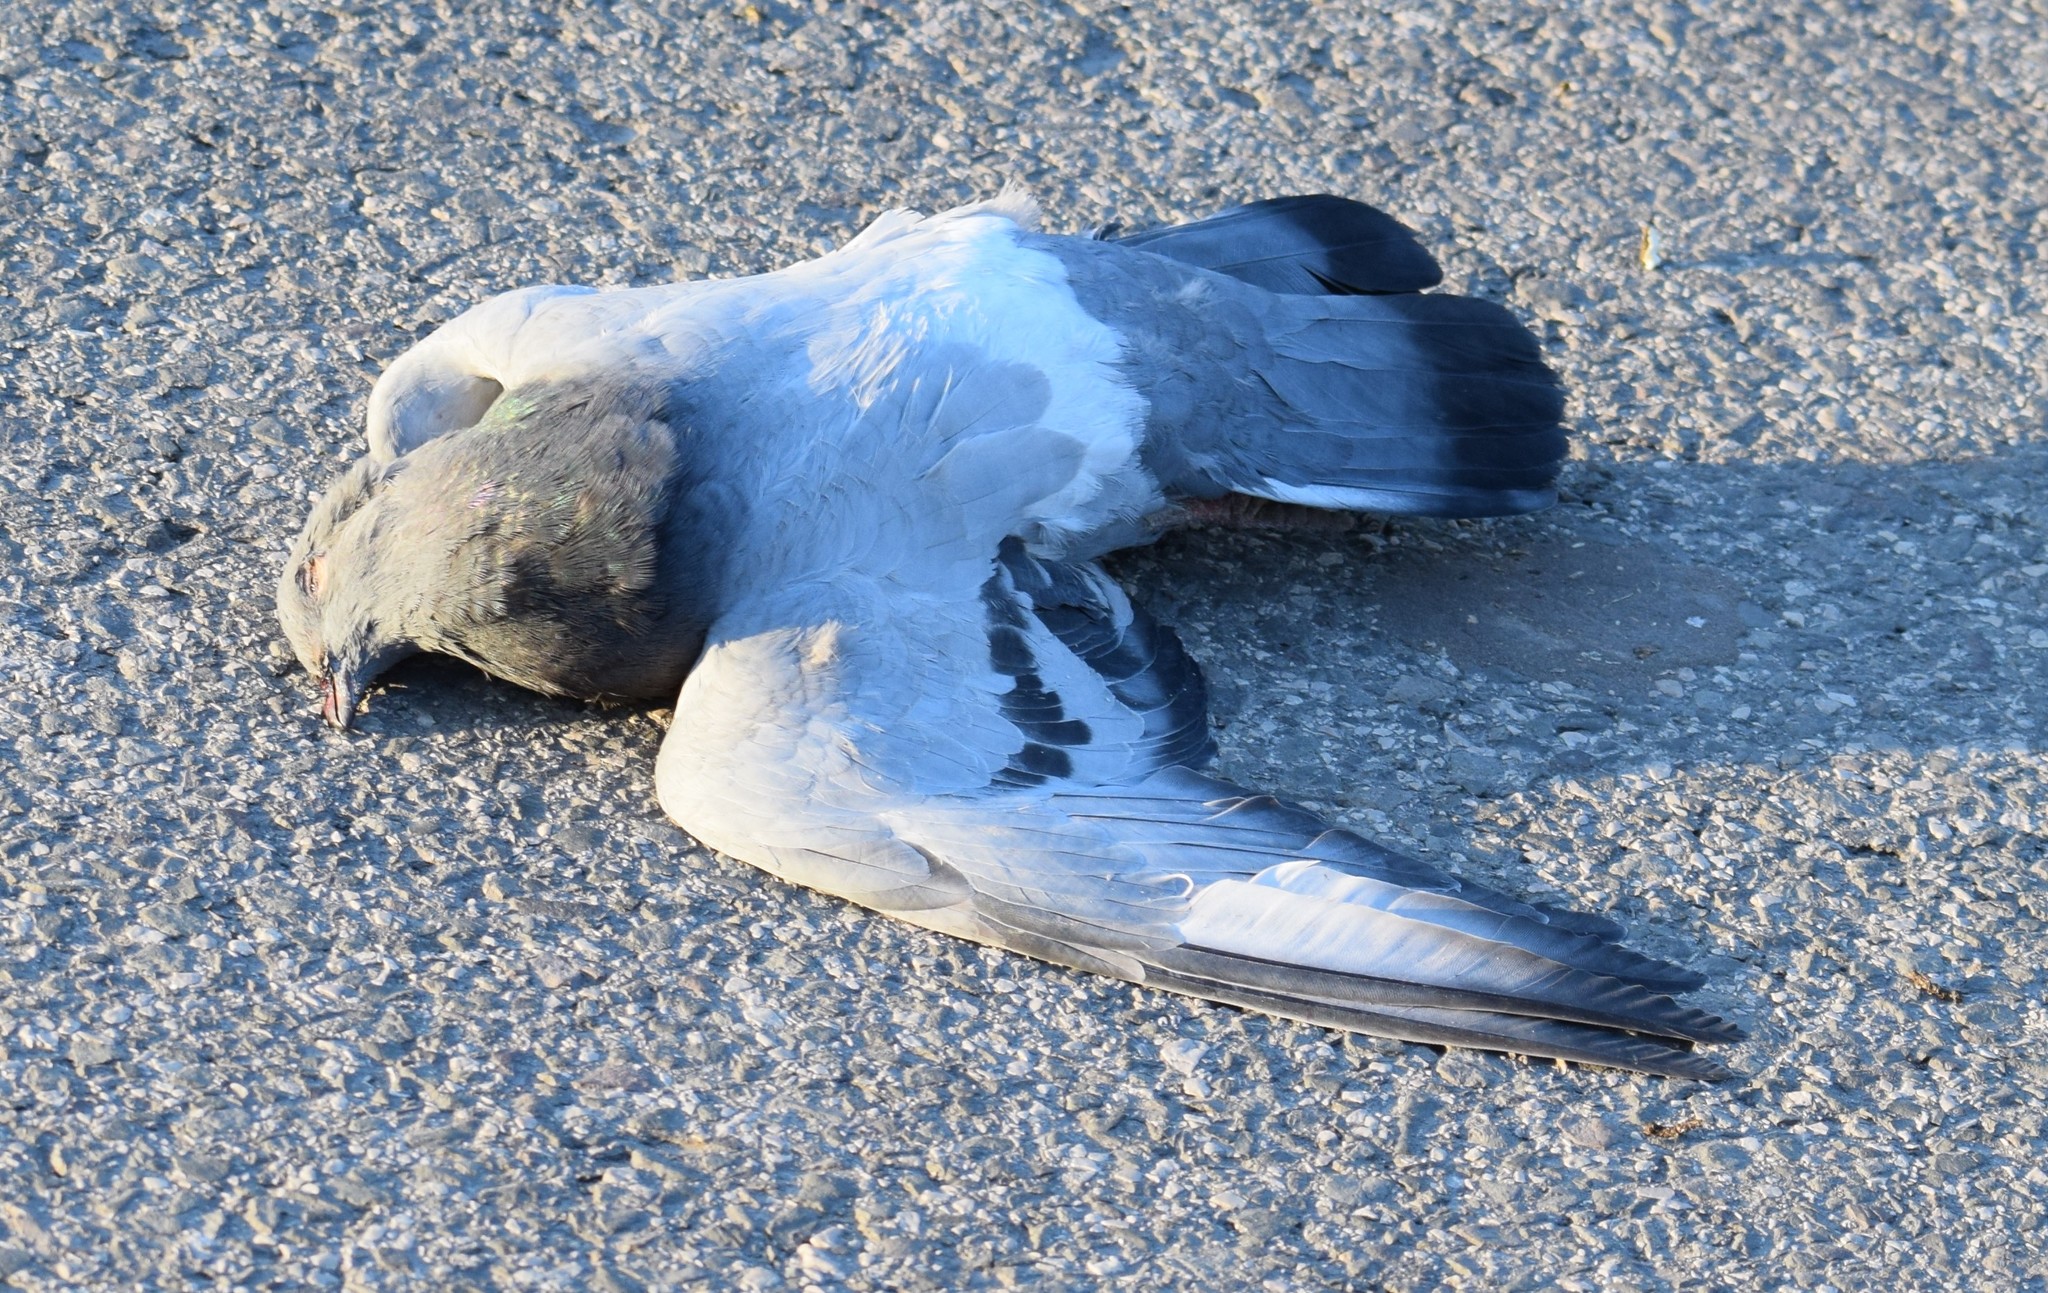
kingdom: Animalia
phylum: Chordata
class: Aves
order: Columbiformes
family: Columbidae
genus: Columba
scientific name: Columba livia
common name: Rock pigeon
